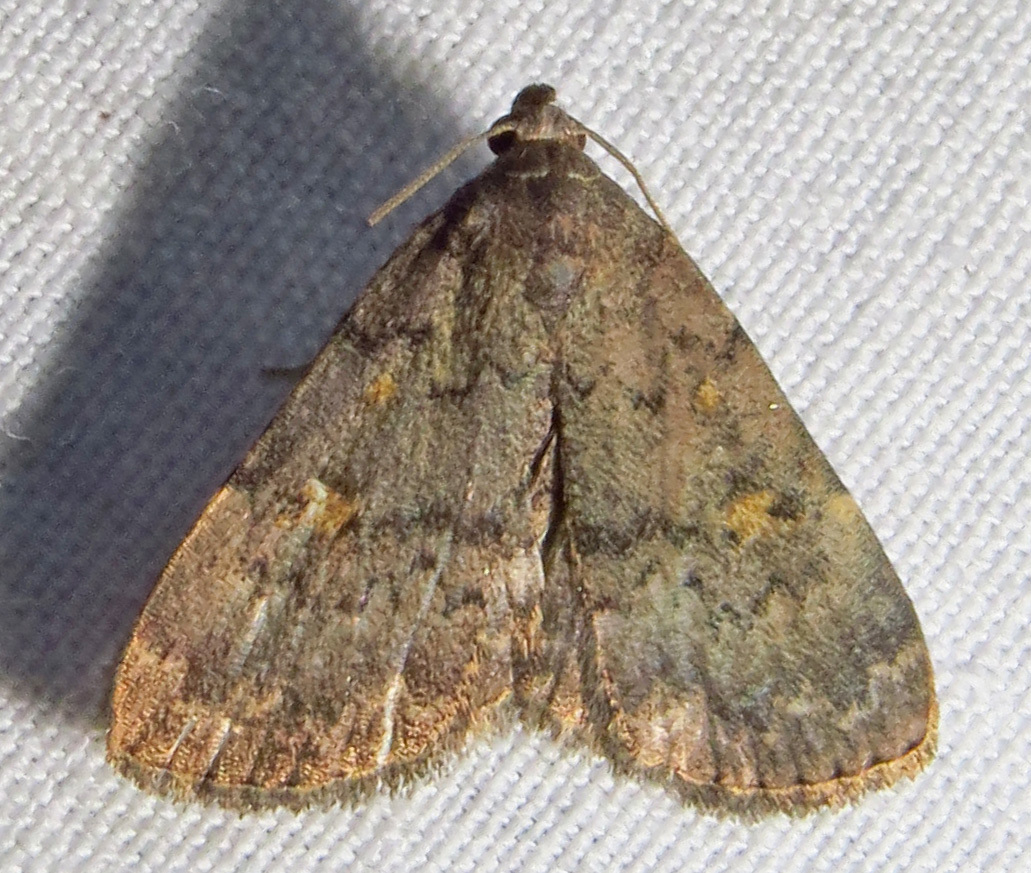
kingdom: Animalia
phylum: Arthropoda
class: Insecta
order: Lepidoptera
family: Erebidae
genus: Idia
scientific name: Idia aemula
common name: Common idia moth
